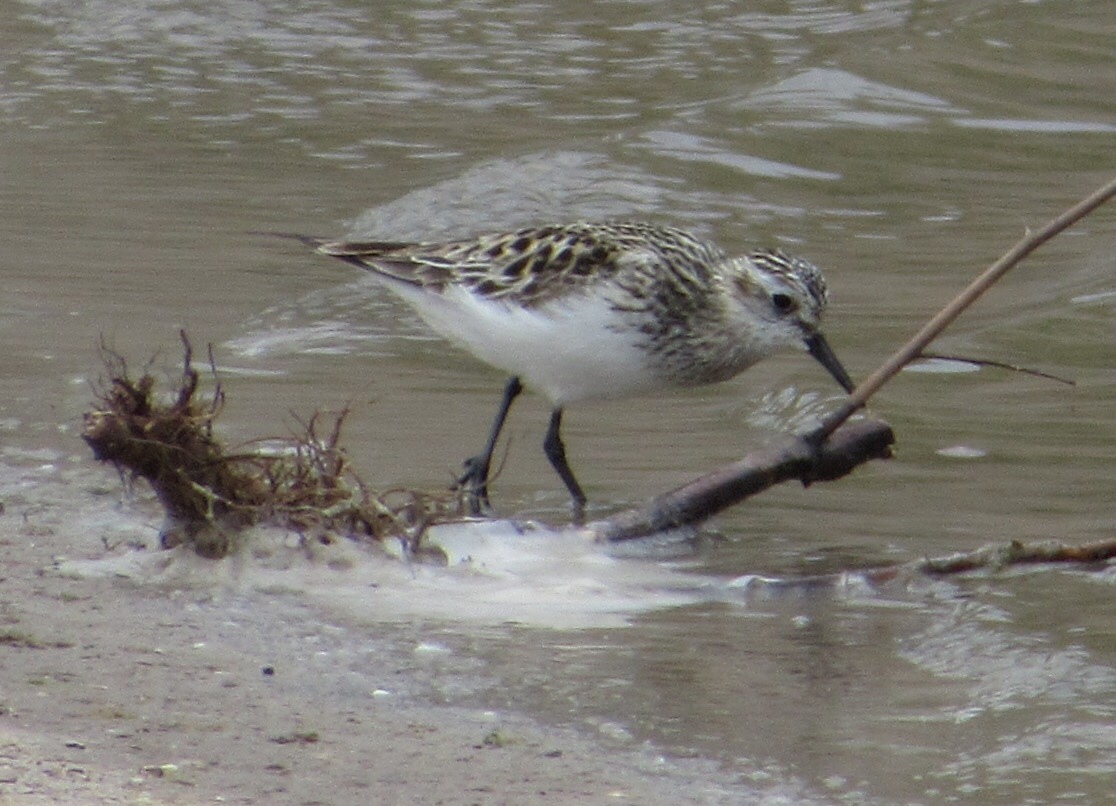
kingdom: Animalia
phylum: Chordata
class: Aves
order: Charadriiformes
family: Scolopacidae
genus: Calidris
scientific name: Calidris bairdii
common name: Baird's sandpiper
